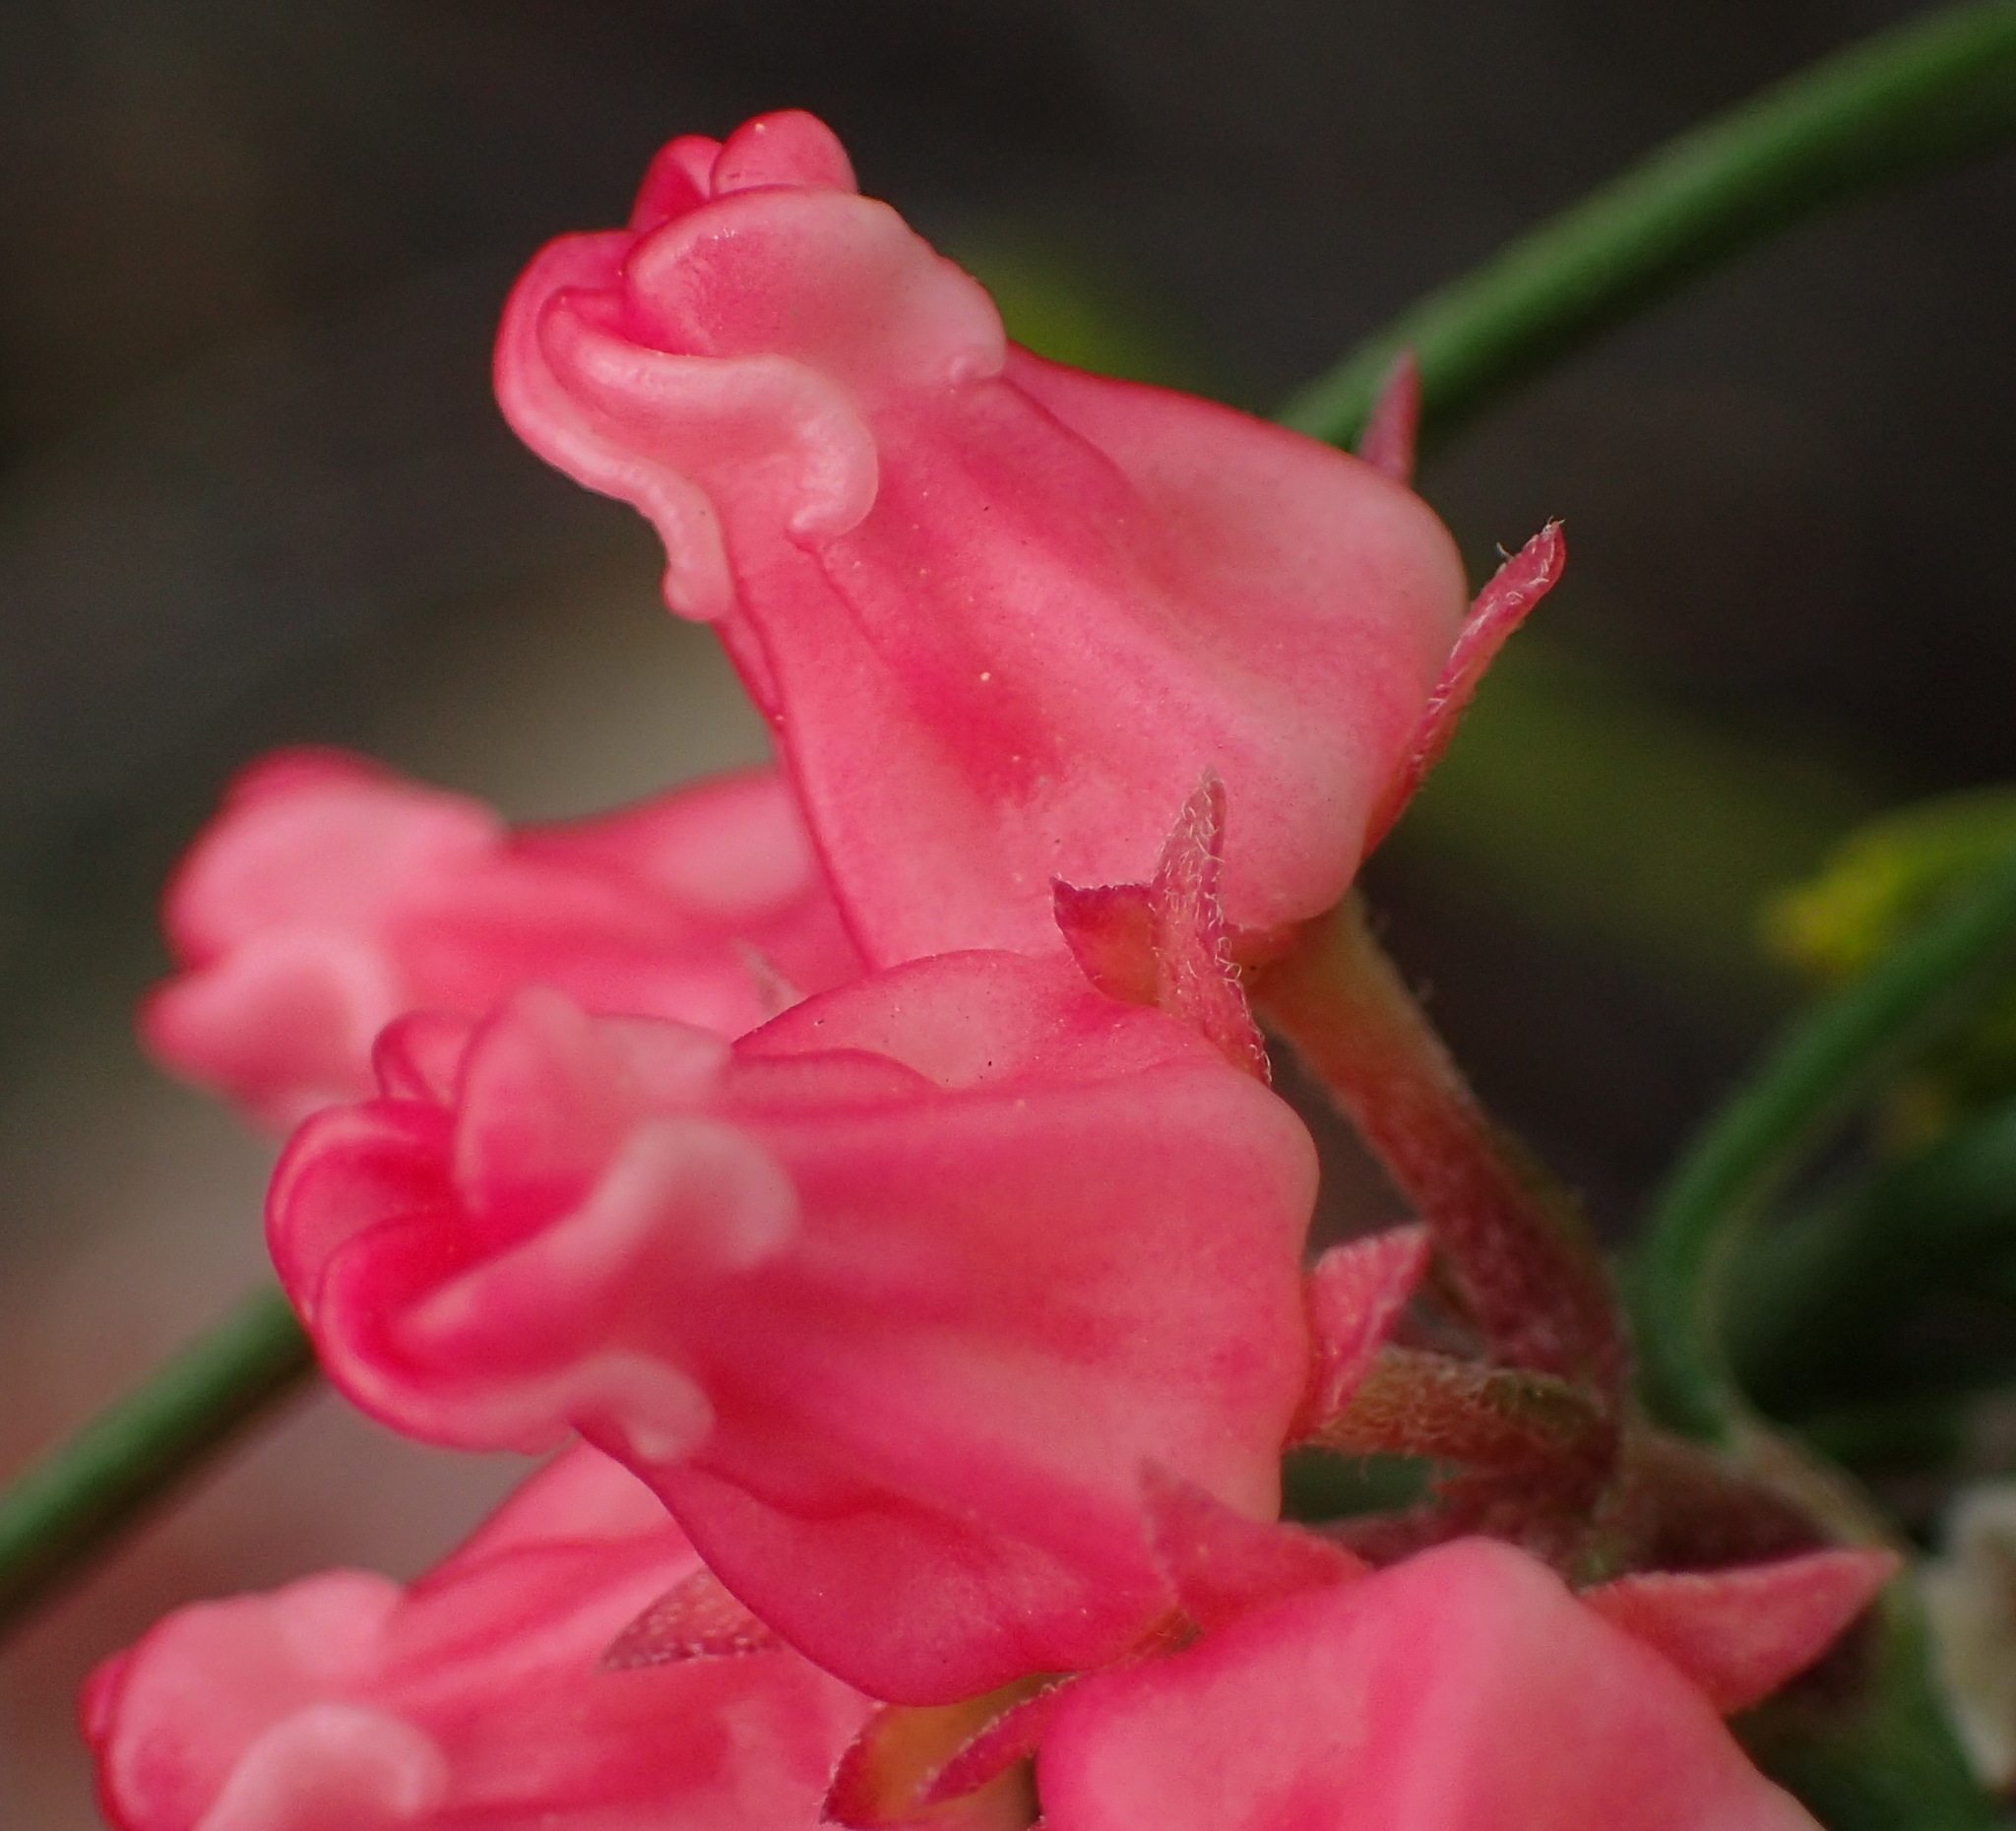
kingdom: Plantae
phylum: Tracheophyta
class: Magnoliopsida
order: Gentianales
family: Apocynaceae
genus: Microloma
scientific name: Microloma tenuifolium
